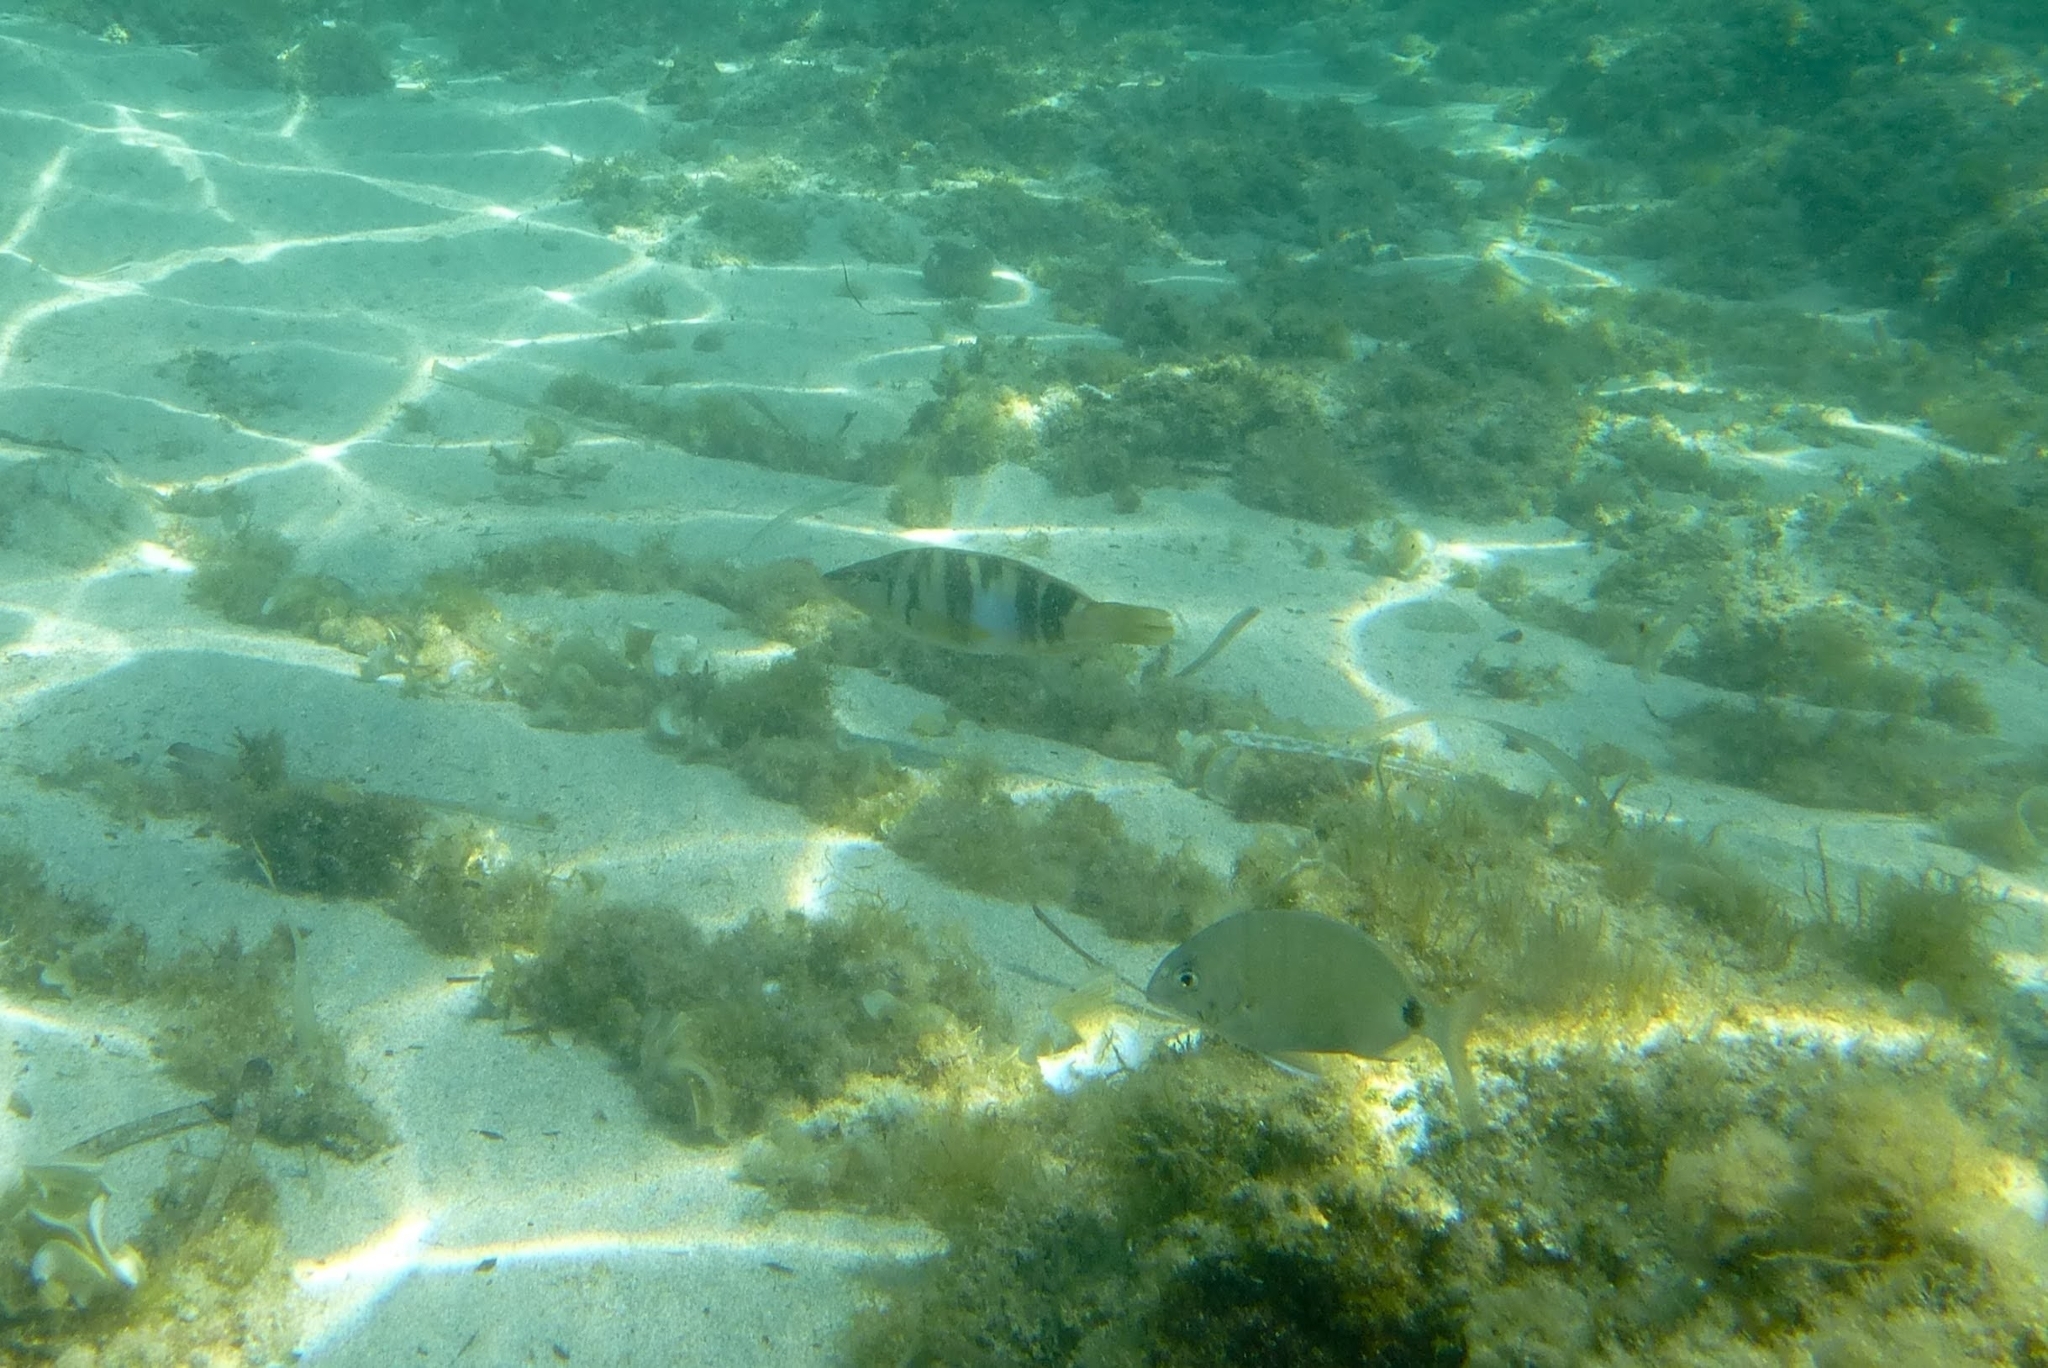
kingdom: Animalia
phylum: Chordata
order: Perciformes
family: Serranidae
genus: Serranus
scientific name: Serranus scriba
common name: Painted comber
